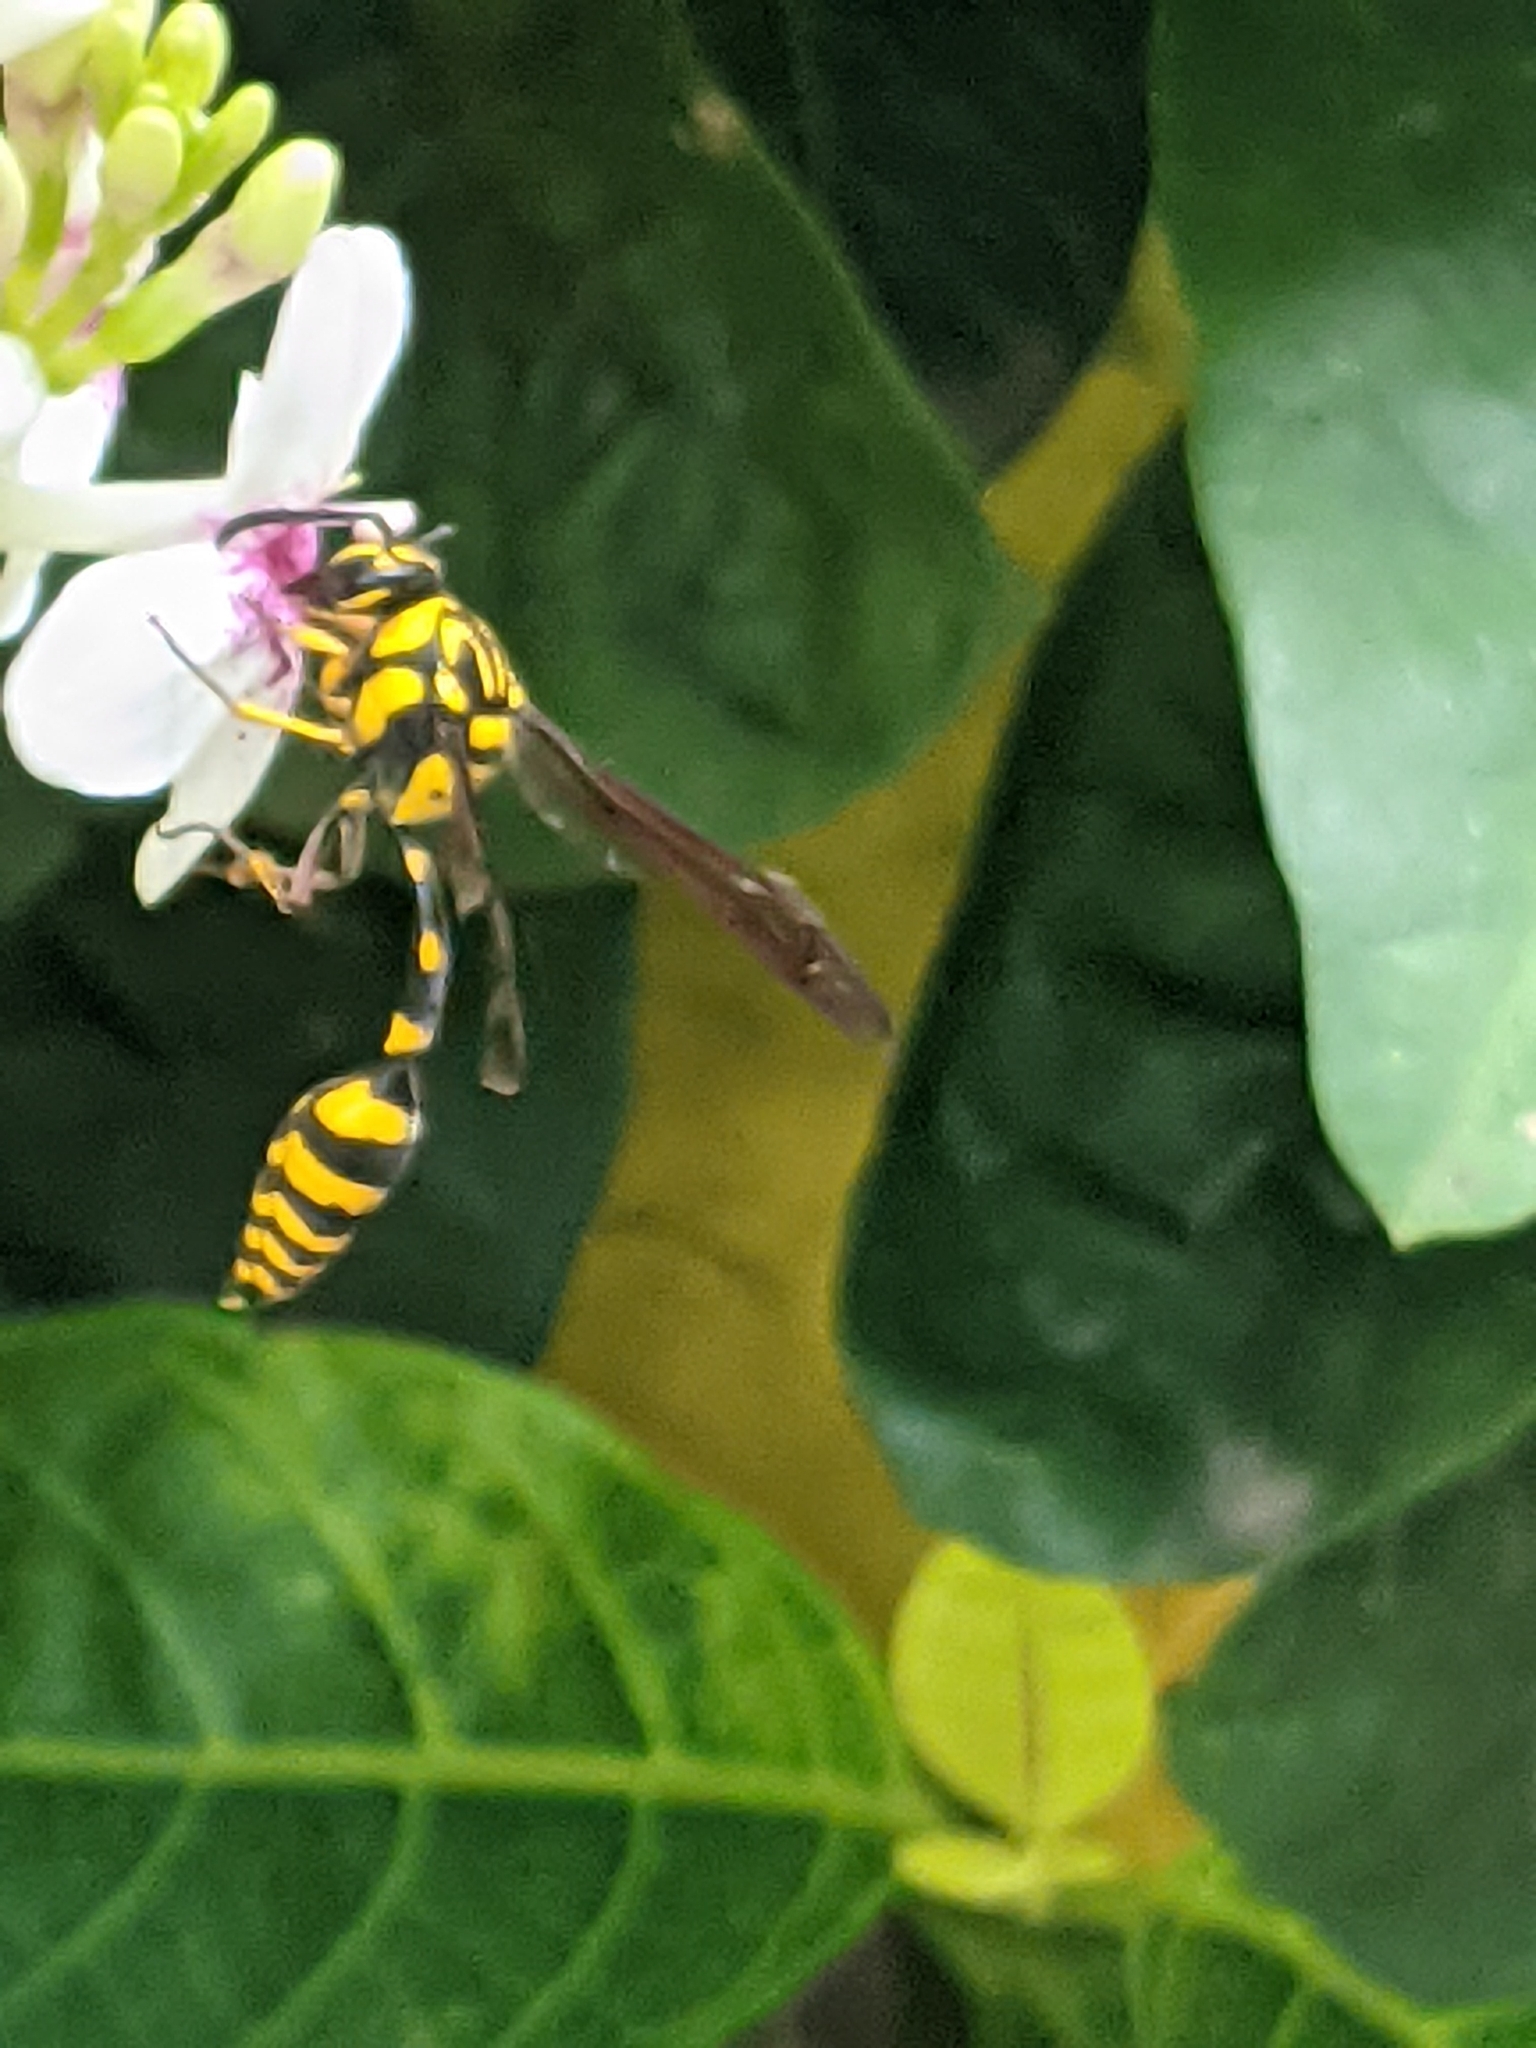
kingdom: Animalia
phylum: Arthropoda
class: Insecta
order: Hymenoptera
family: Eumenidae
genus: Phimenes
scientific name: Phimenes flavopictus
